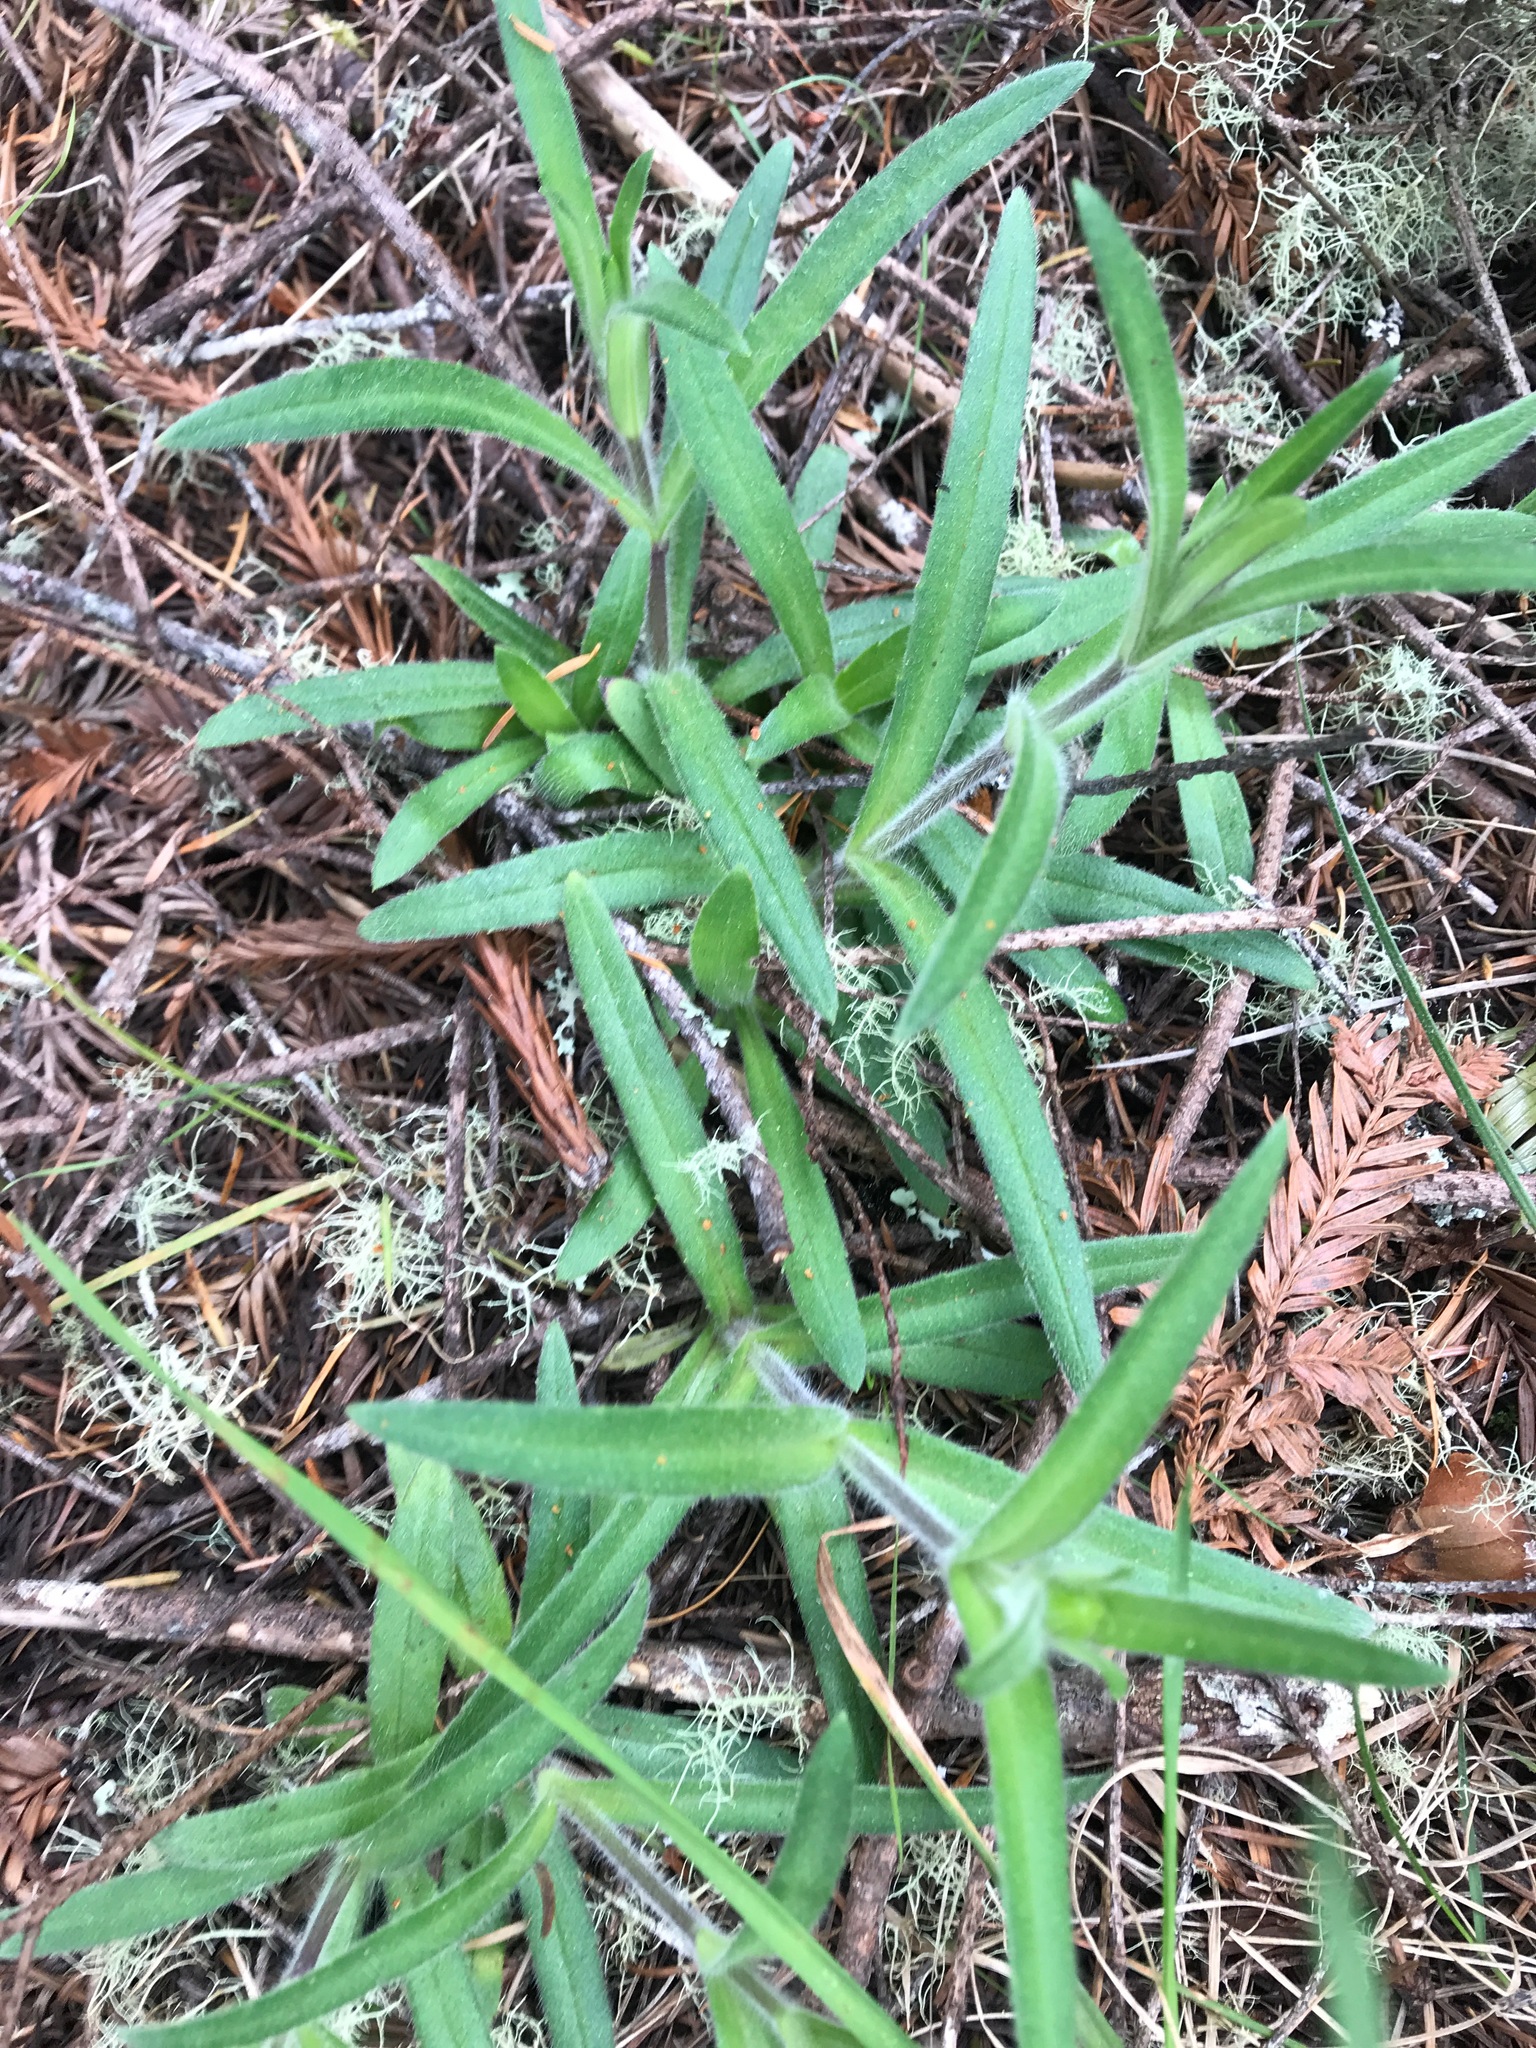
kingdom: Plantae
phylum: Tracheophyta
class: Magnoliopsida
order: Asterales
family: Asteraceae
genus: Anisocarpus
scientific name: Anisocarpus madioides
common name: Woodland madia
